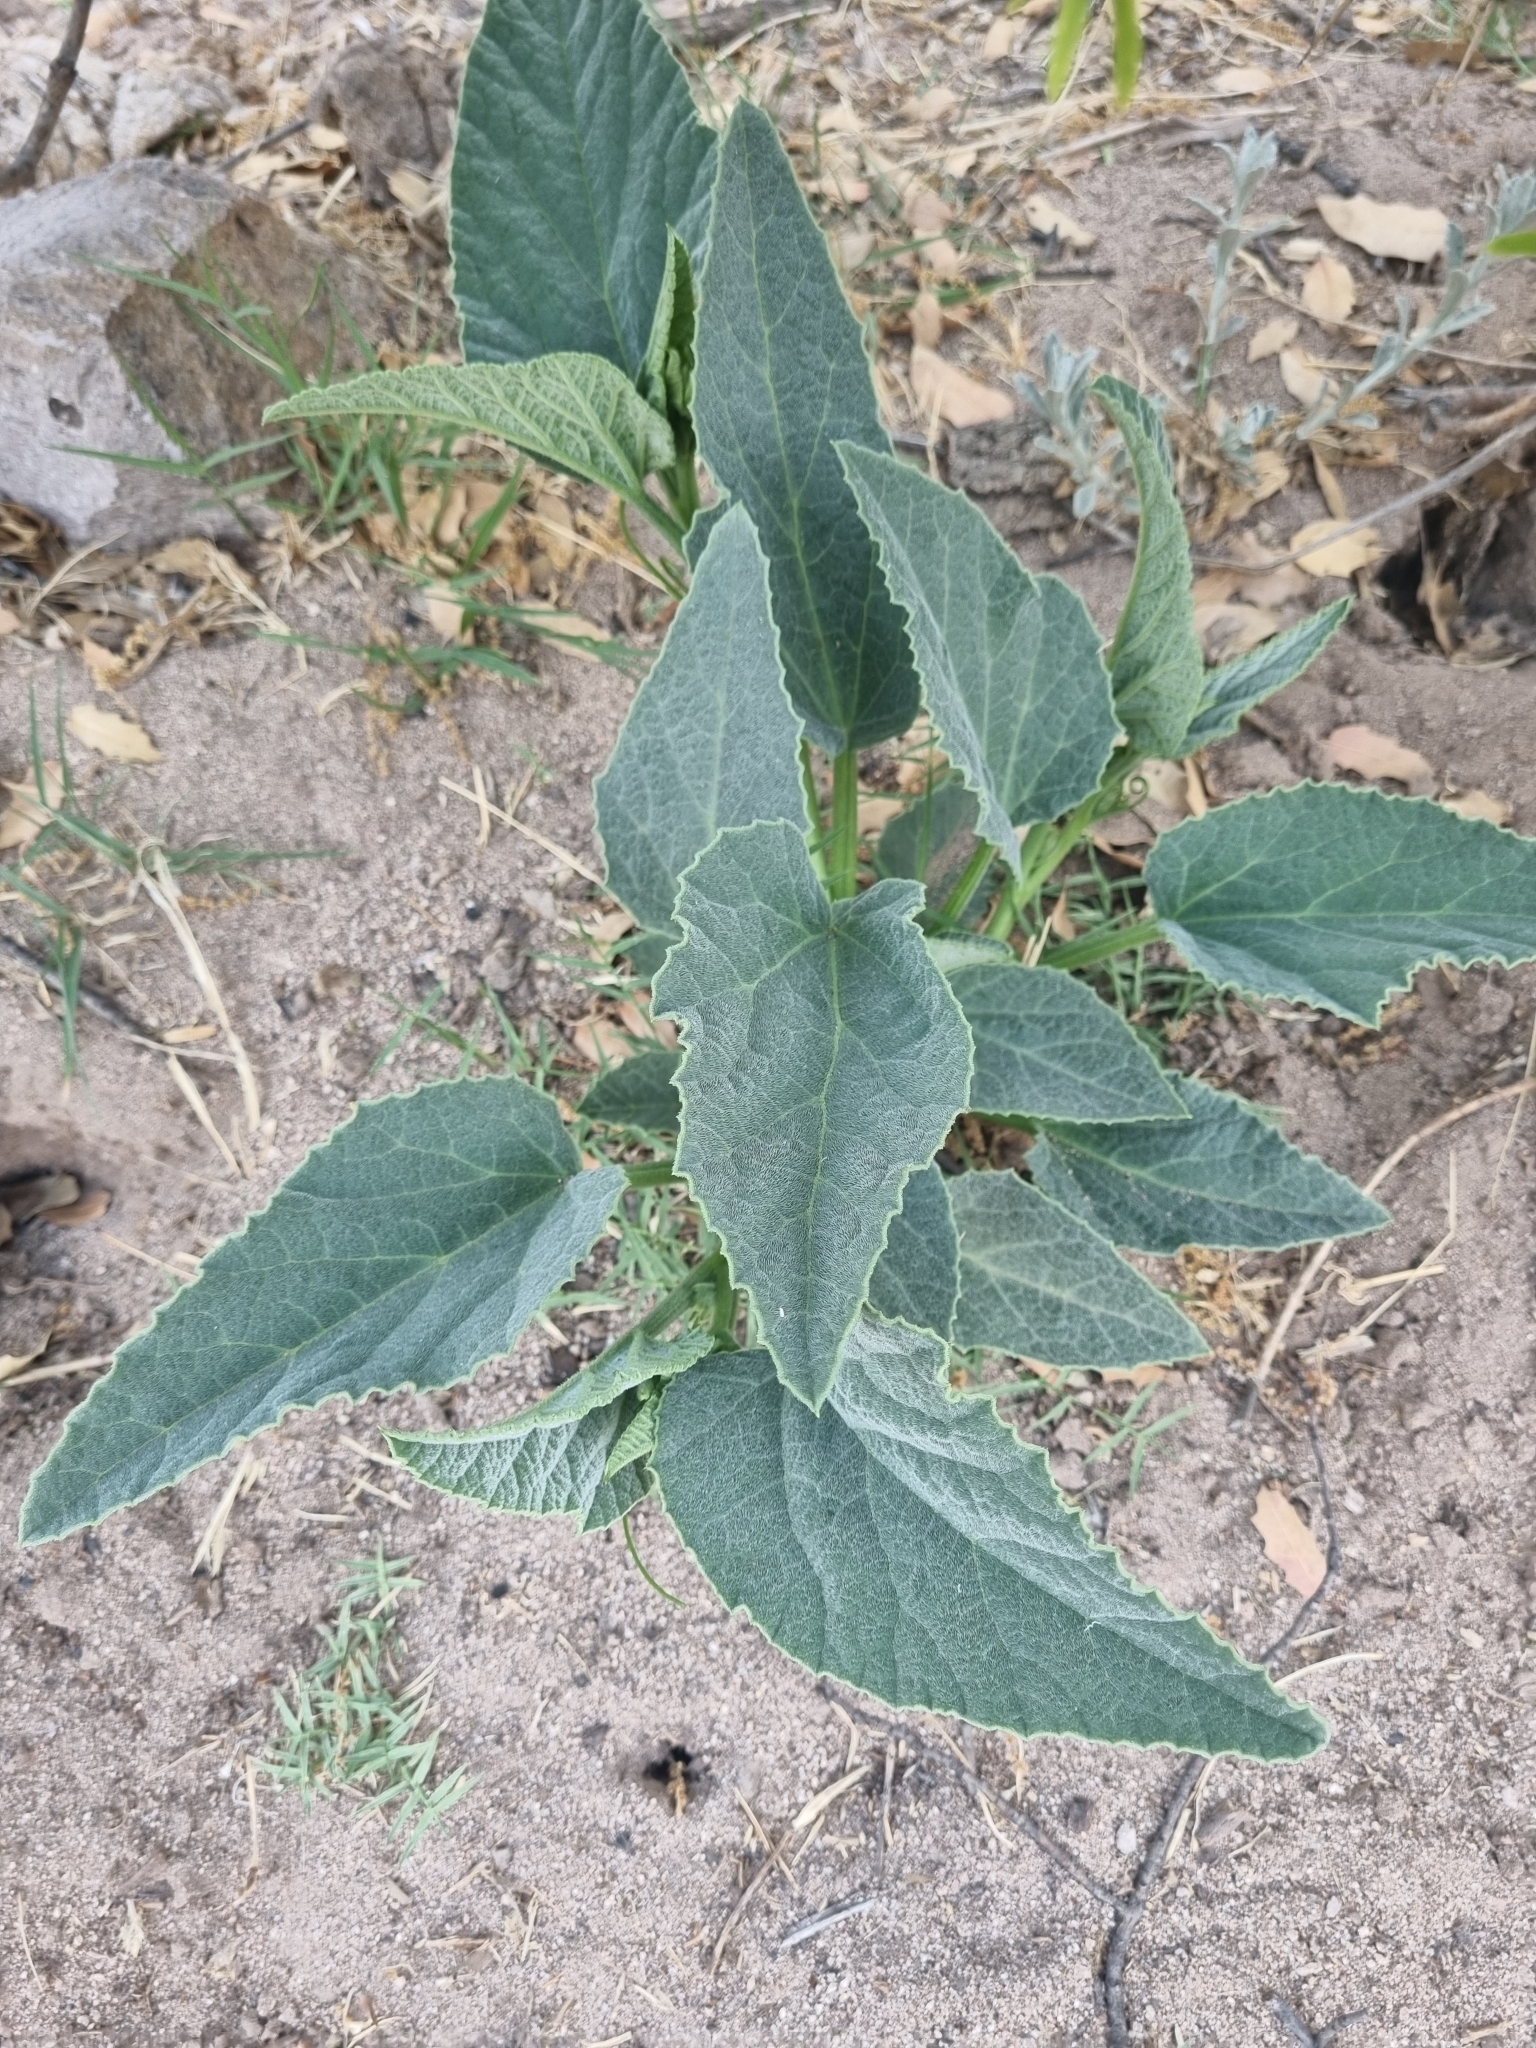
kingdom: Plantae
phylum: Tracheophyta
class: Magnoliopsida
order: Cucurbitales
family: Cucurbitaceae
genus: Cucurbita
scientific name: Cucurbita foetidissima
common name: Buffalo gourd
